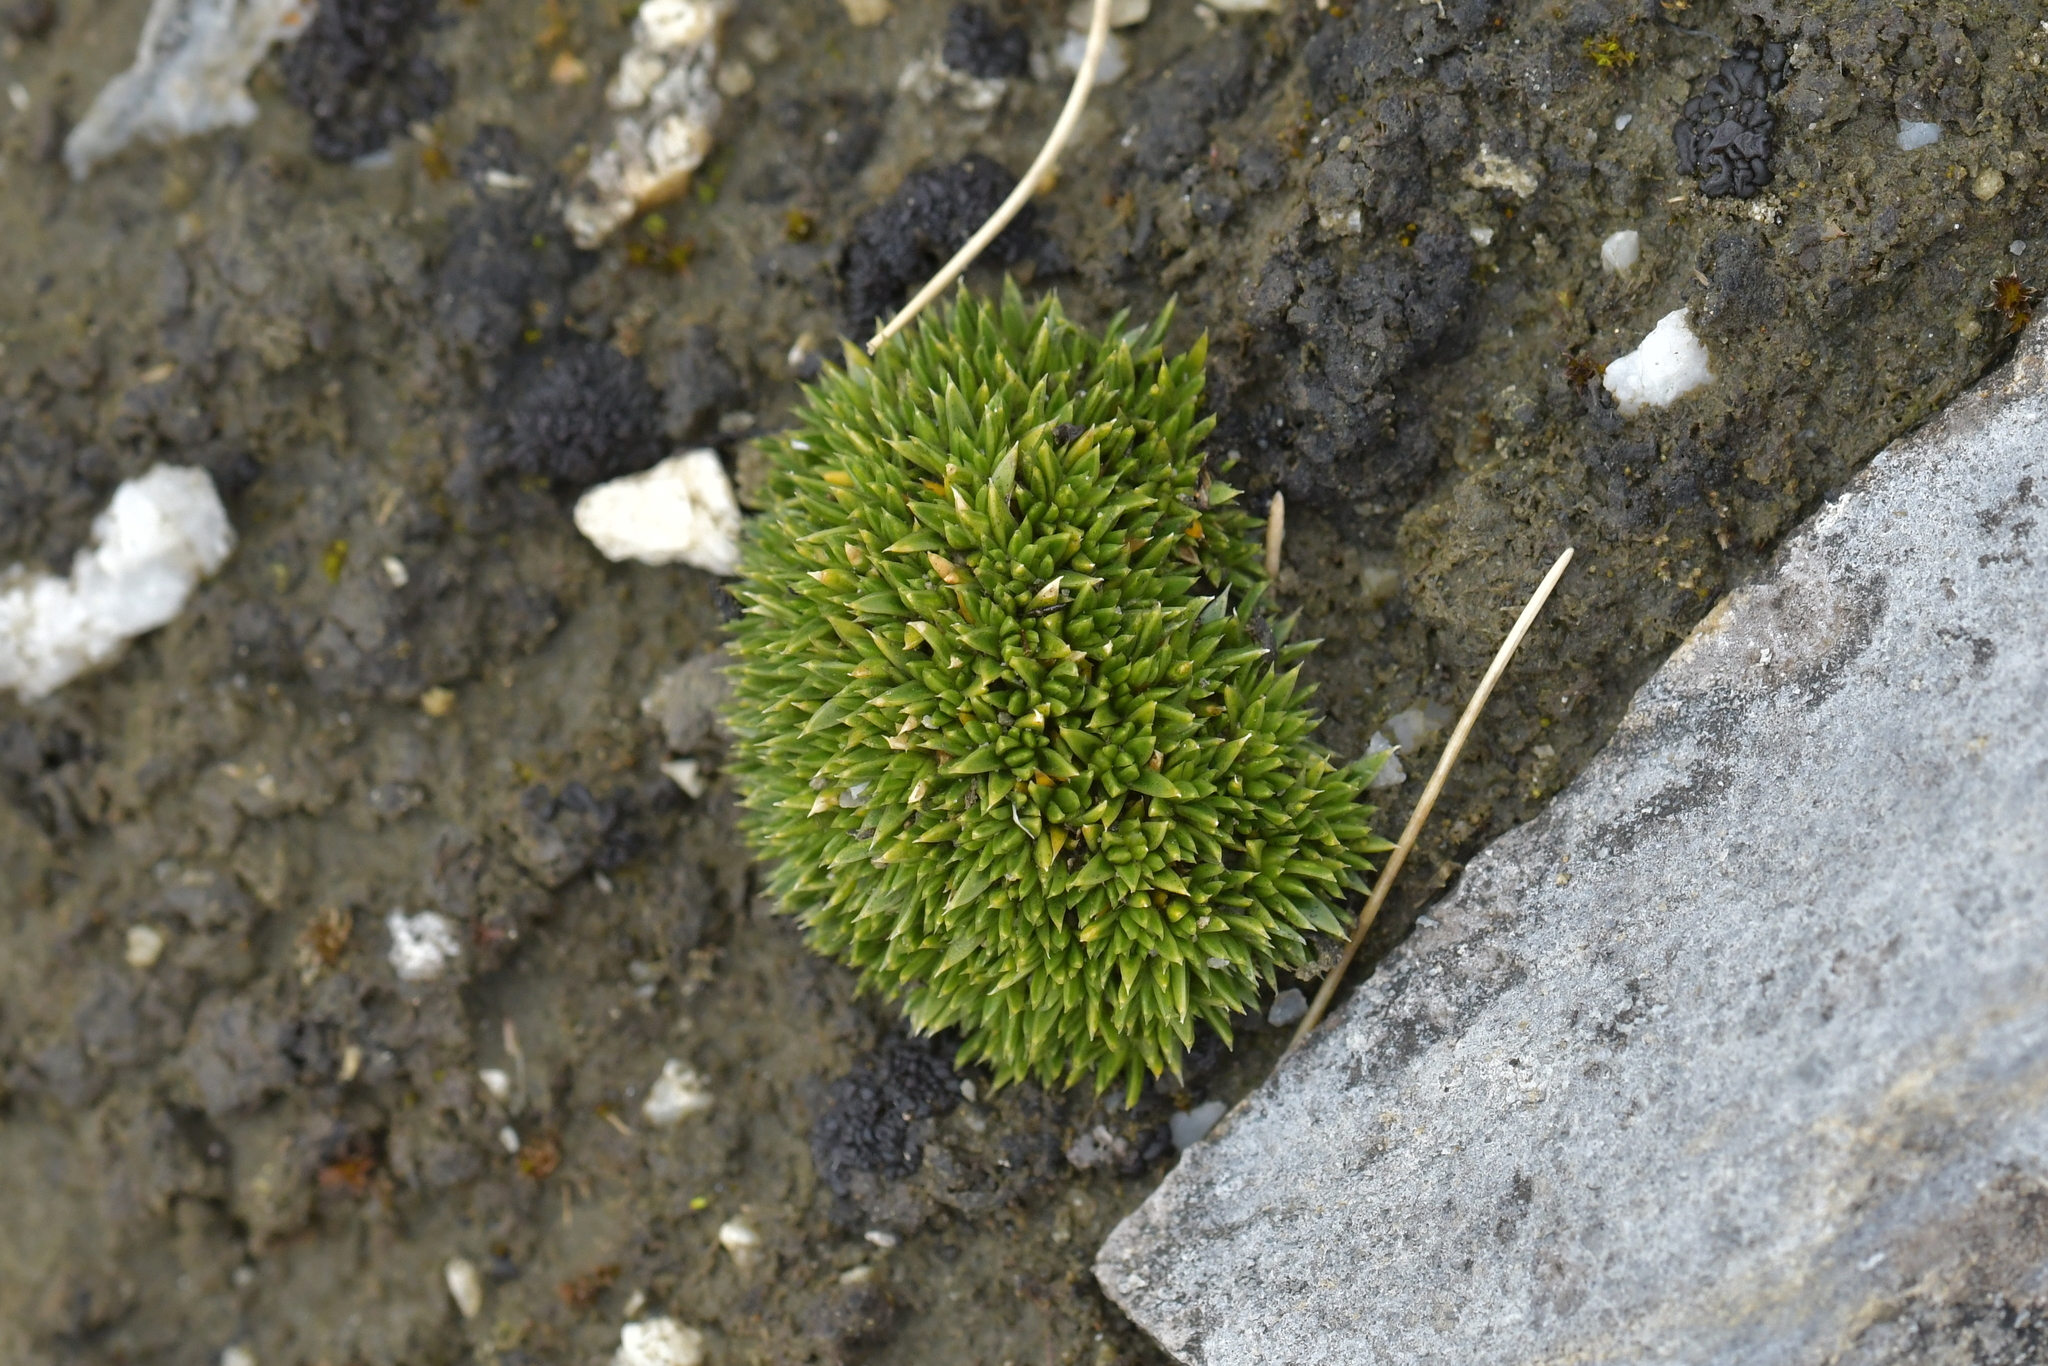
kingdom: Plantae
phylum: Tracheophyta
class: Magnoliopsida
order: Caryophyllales
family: Caryophyllaceae
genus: Colobanthus
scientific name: Colobanthus squarrosus
